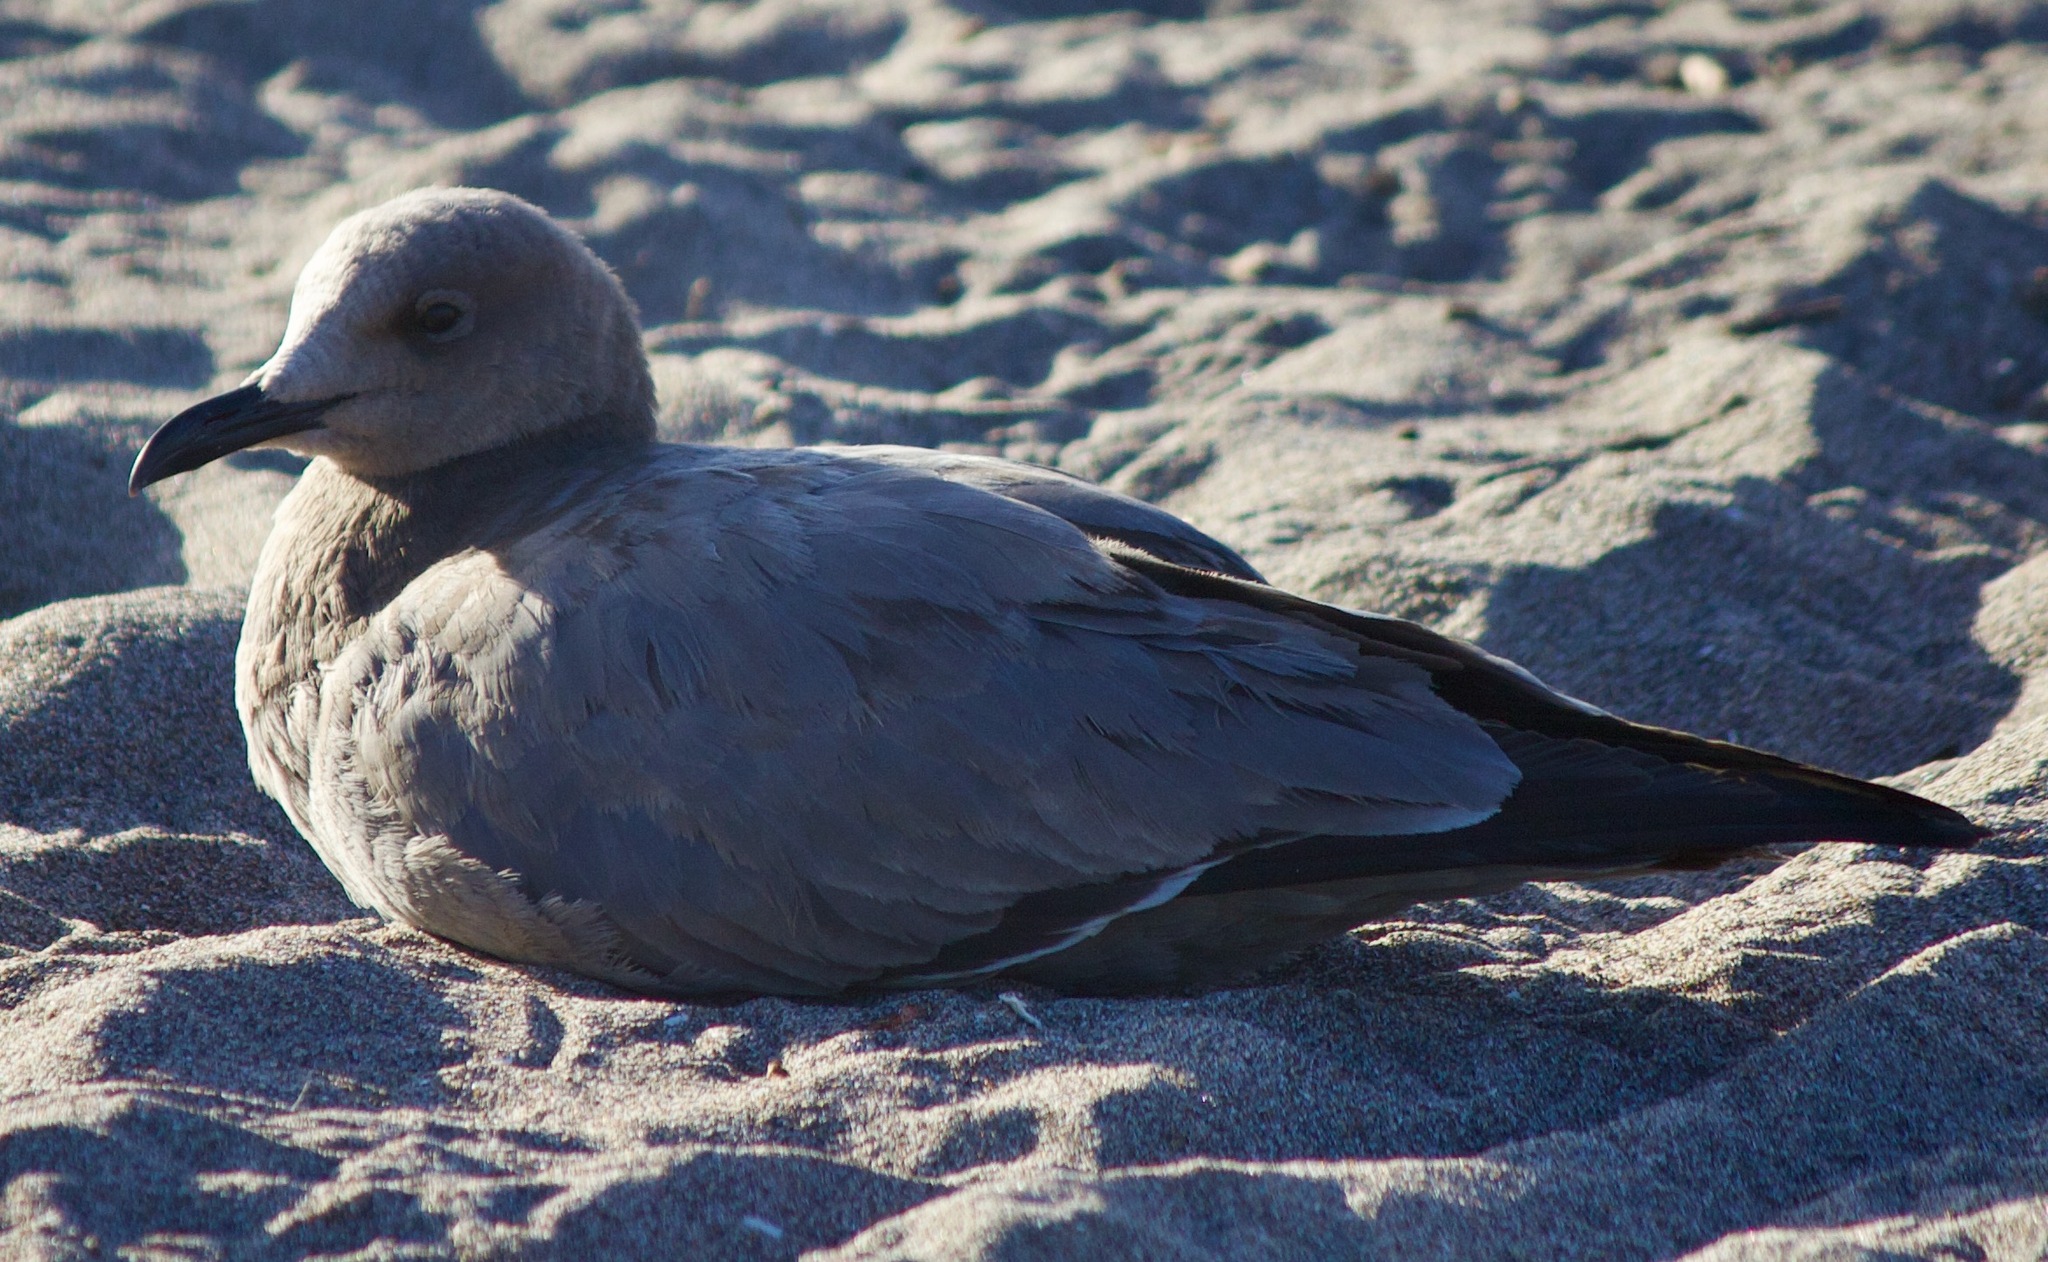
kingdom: Animalia
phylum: Chordata
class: Aves
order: Charadriiformes
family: Laridae
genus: Leucophaeus
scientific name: Leucophaeus modestus
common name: Gray gull
